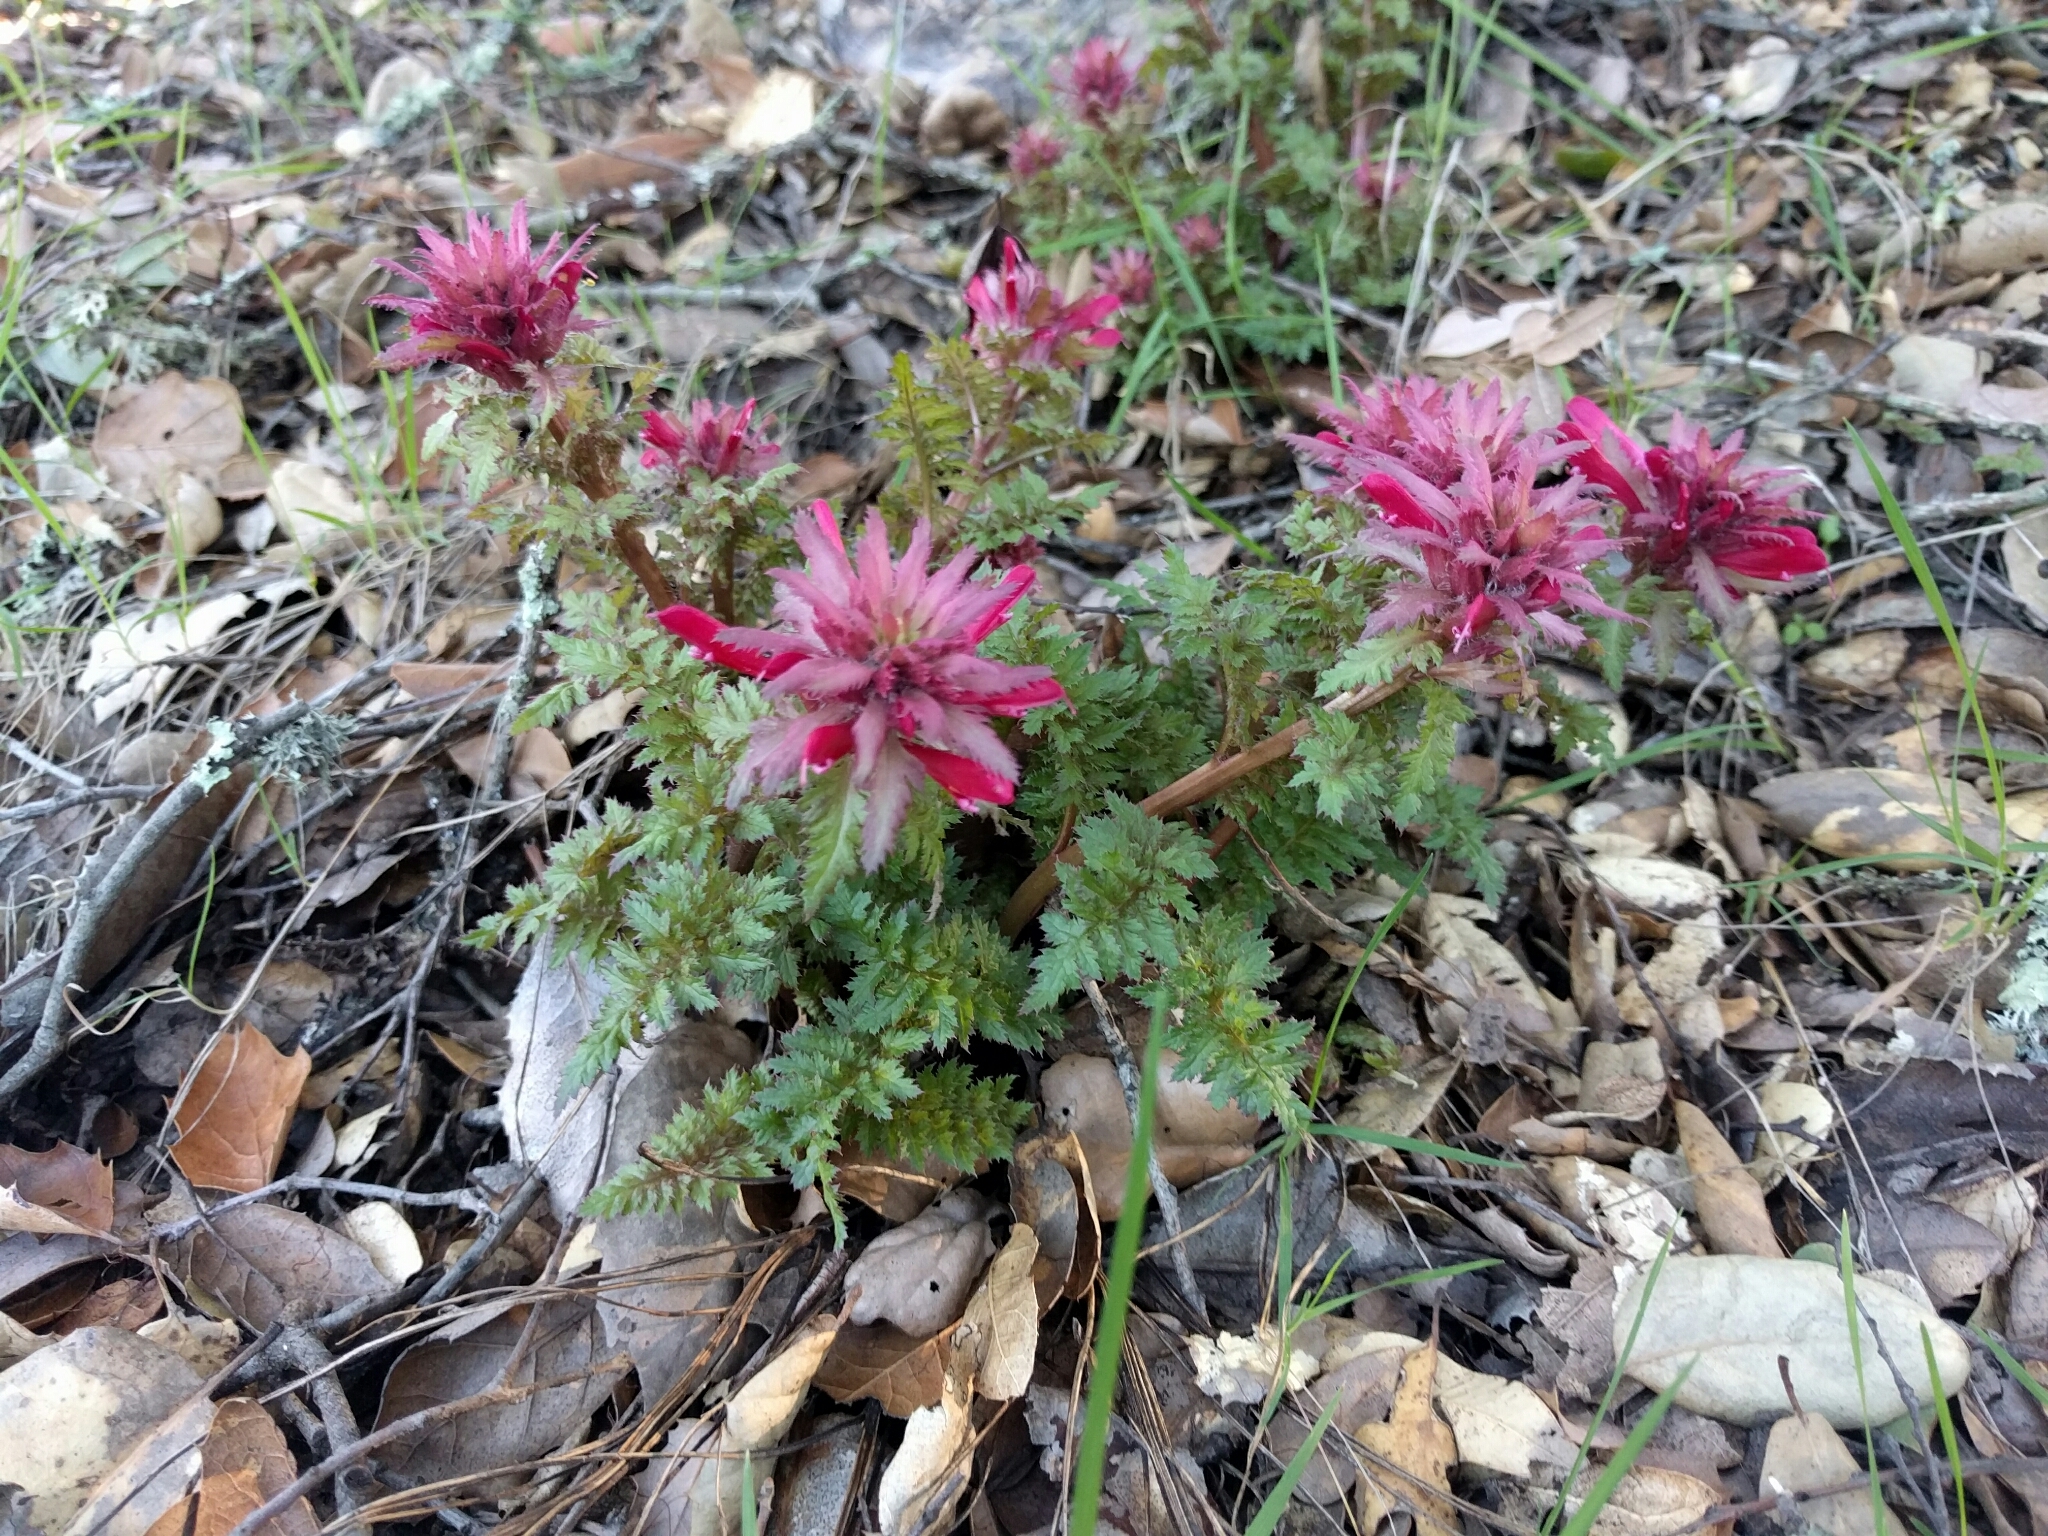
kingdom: Plantae
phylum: Tracheophyta
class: Magnoliopsida
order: Lamiales
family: Orobanchaceae
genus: Pedicularis
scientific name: Pedicularis densiflora
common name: Indian warrior
